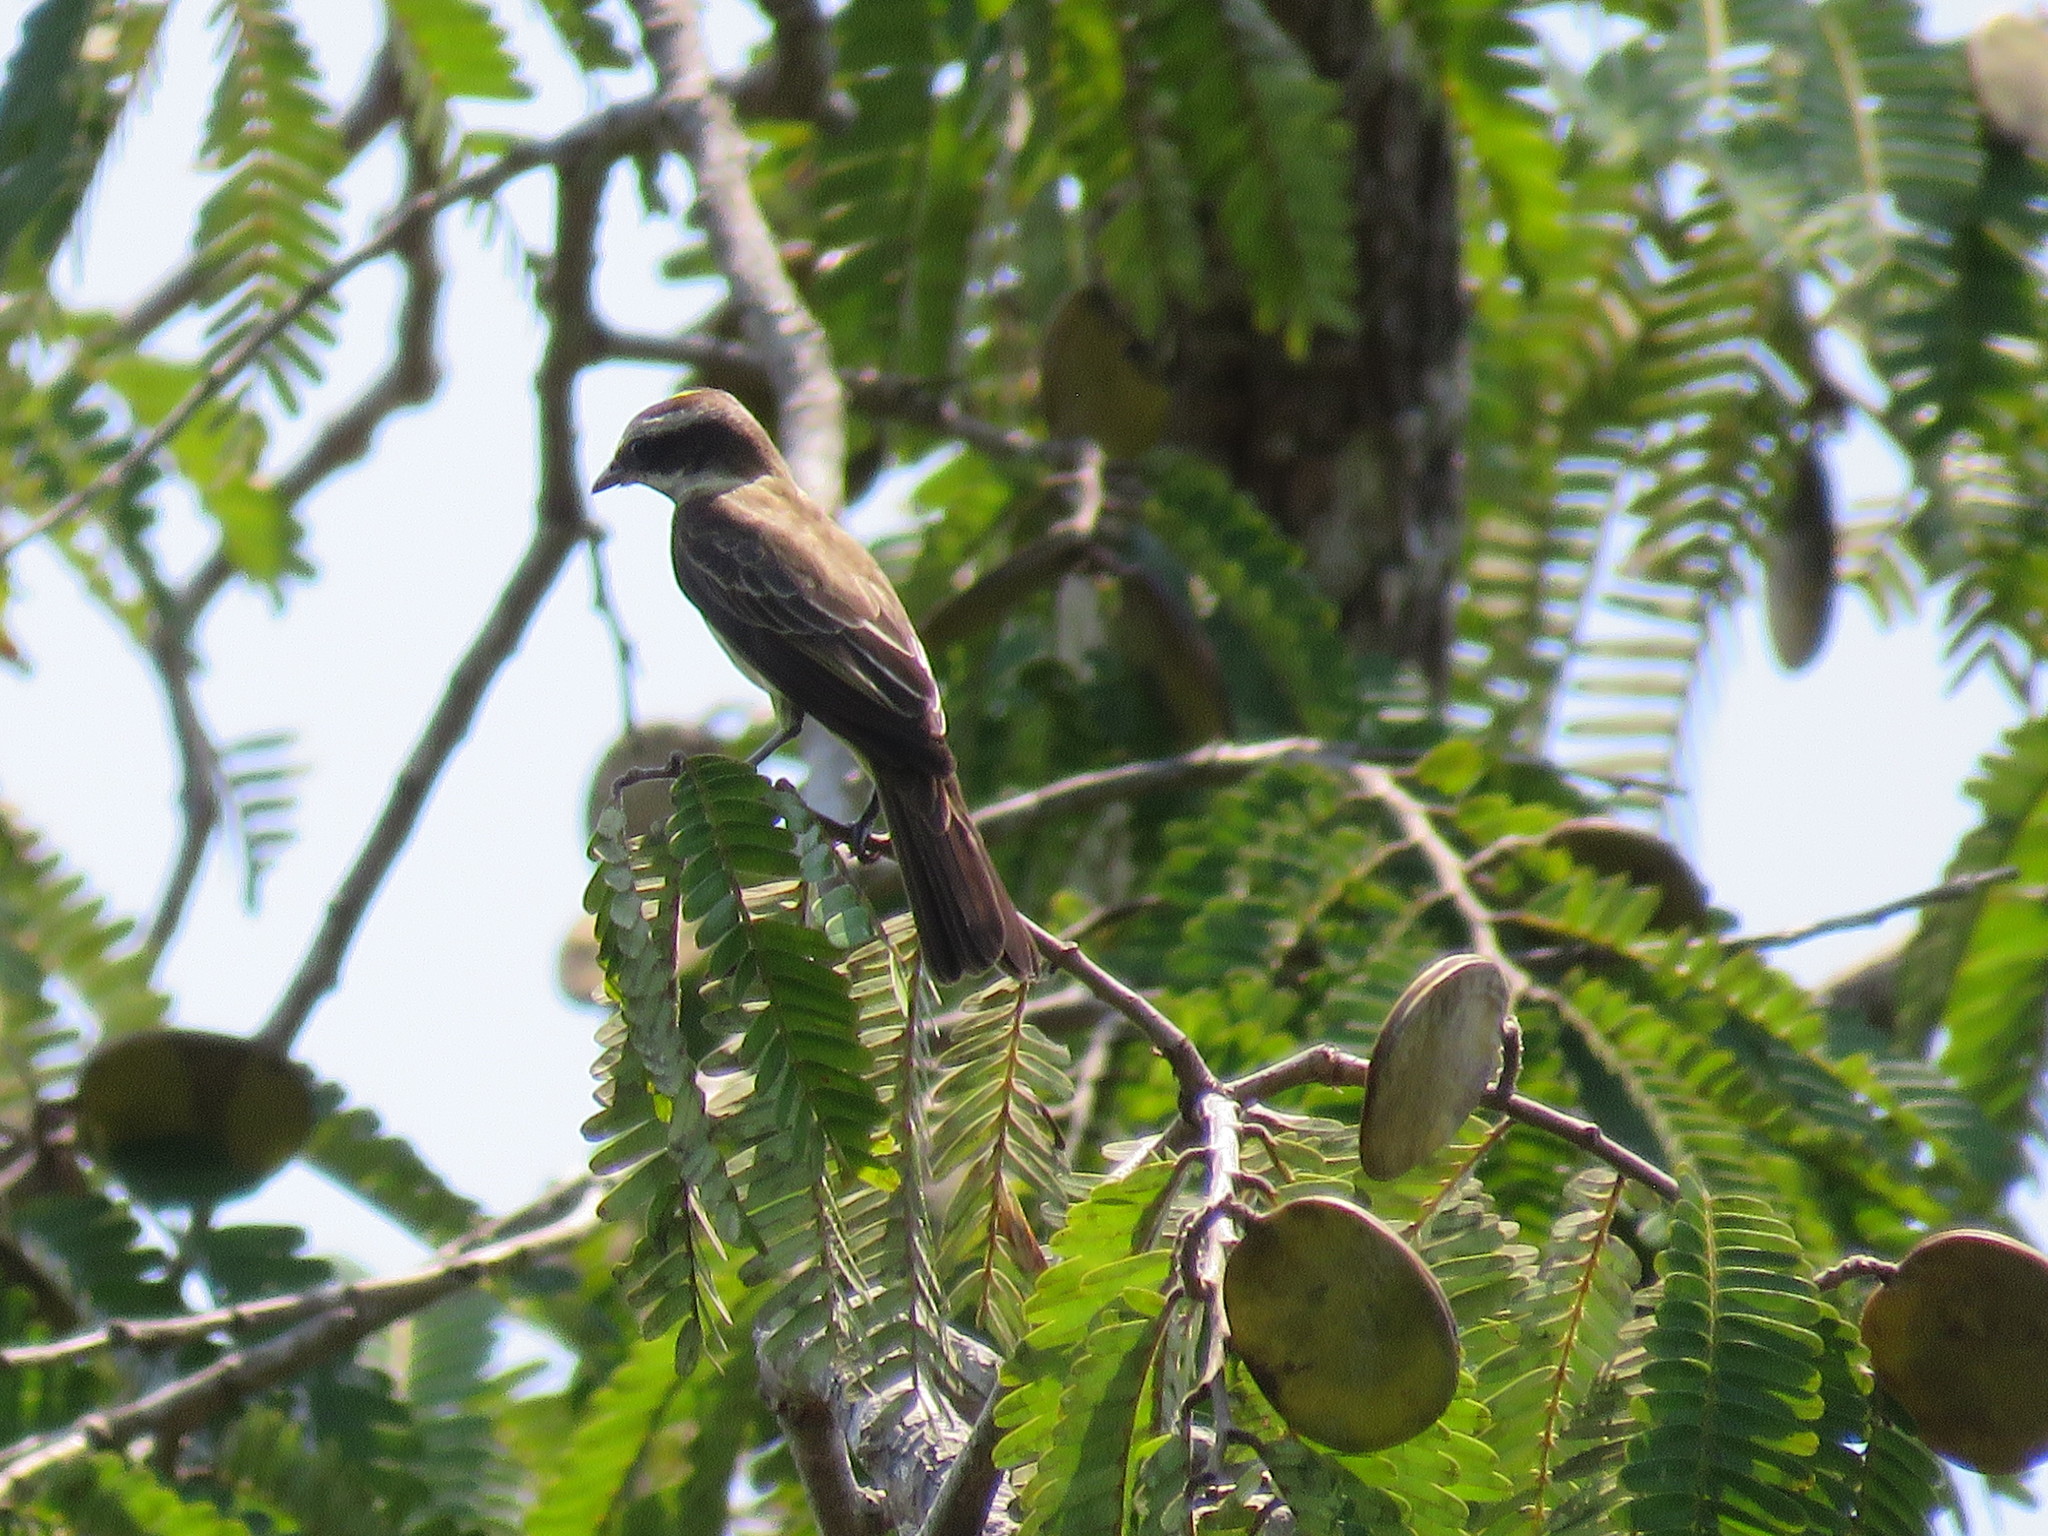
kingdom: Animalia
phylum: Chordata
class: Aves
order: Passeriformes
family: Tyrannidae
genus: Legatus
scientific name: Legatus leucophaius
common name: Piratic flycatcher
